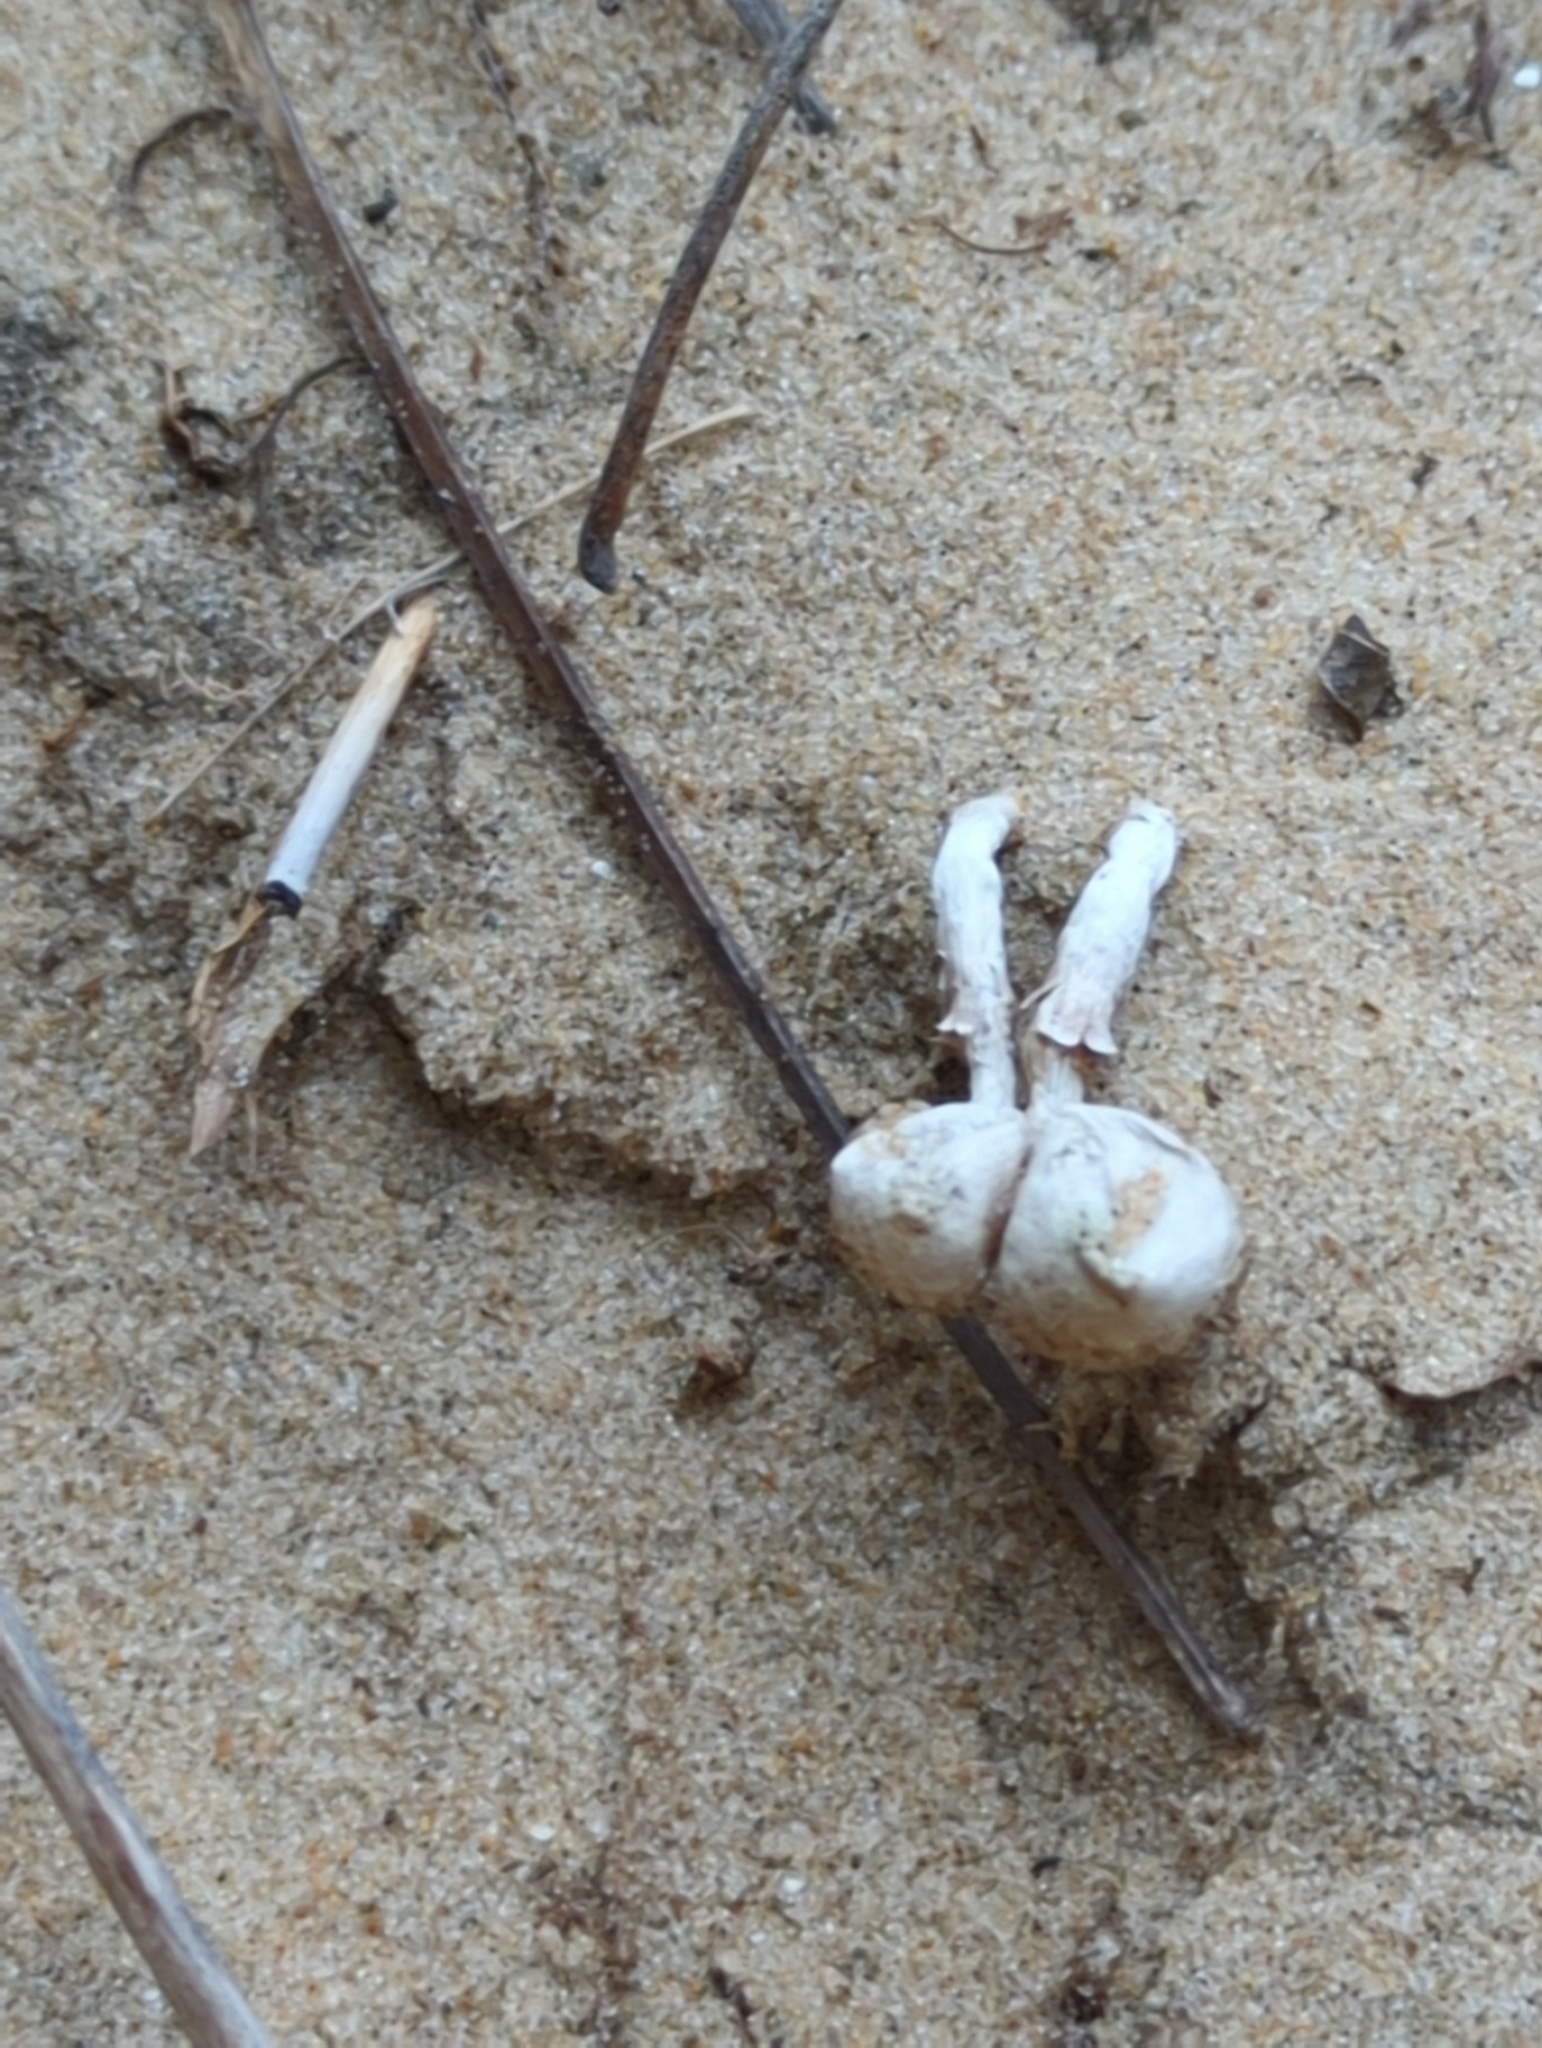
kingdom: Fungi
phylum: Basidiomycota
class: Agaricomycetes
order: Agaricales
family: Agaricaceae
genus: Tulostoma
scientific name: Tulostoma punctatum
